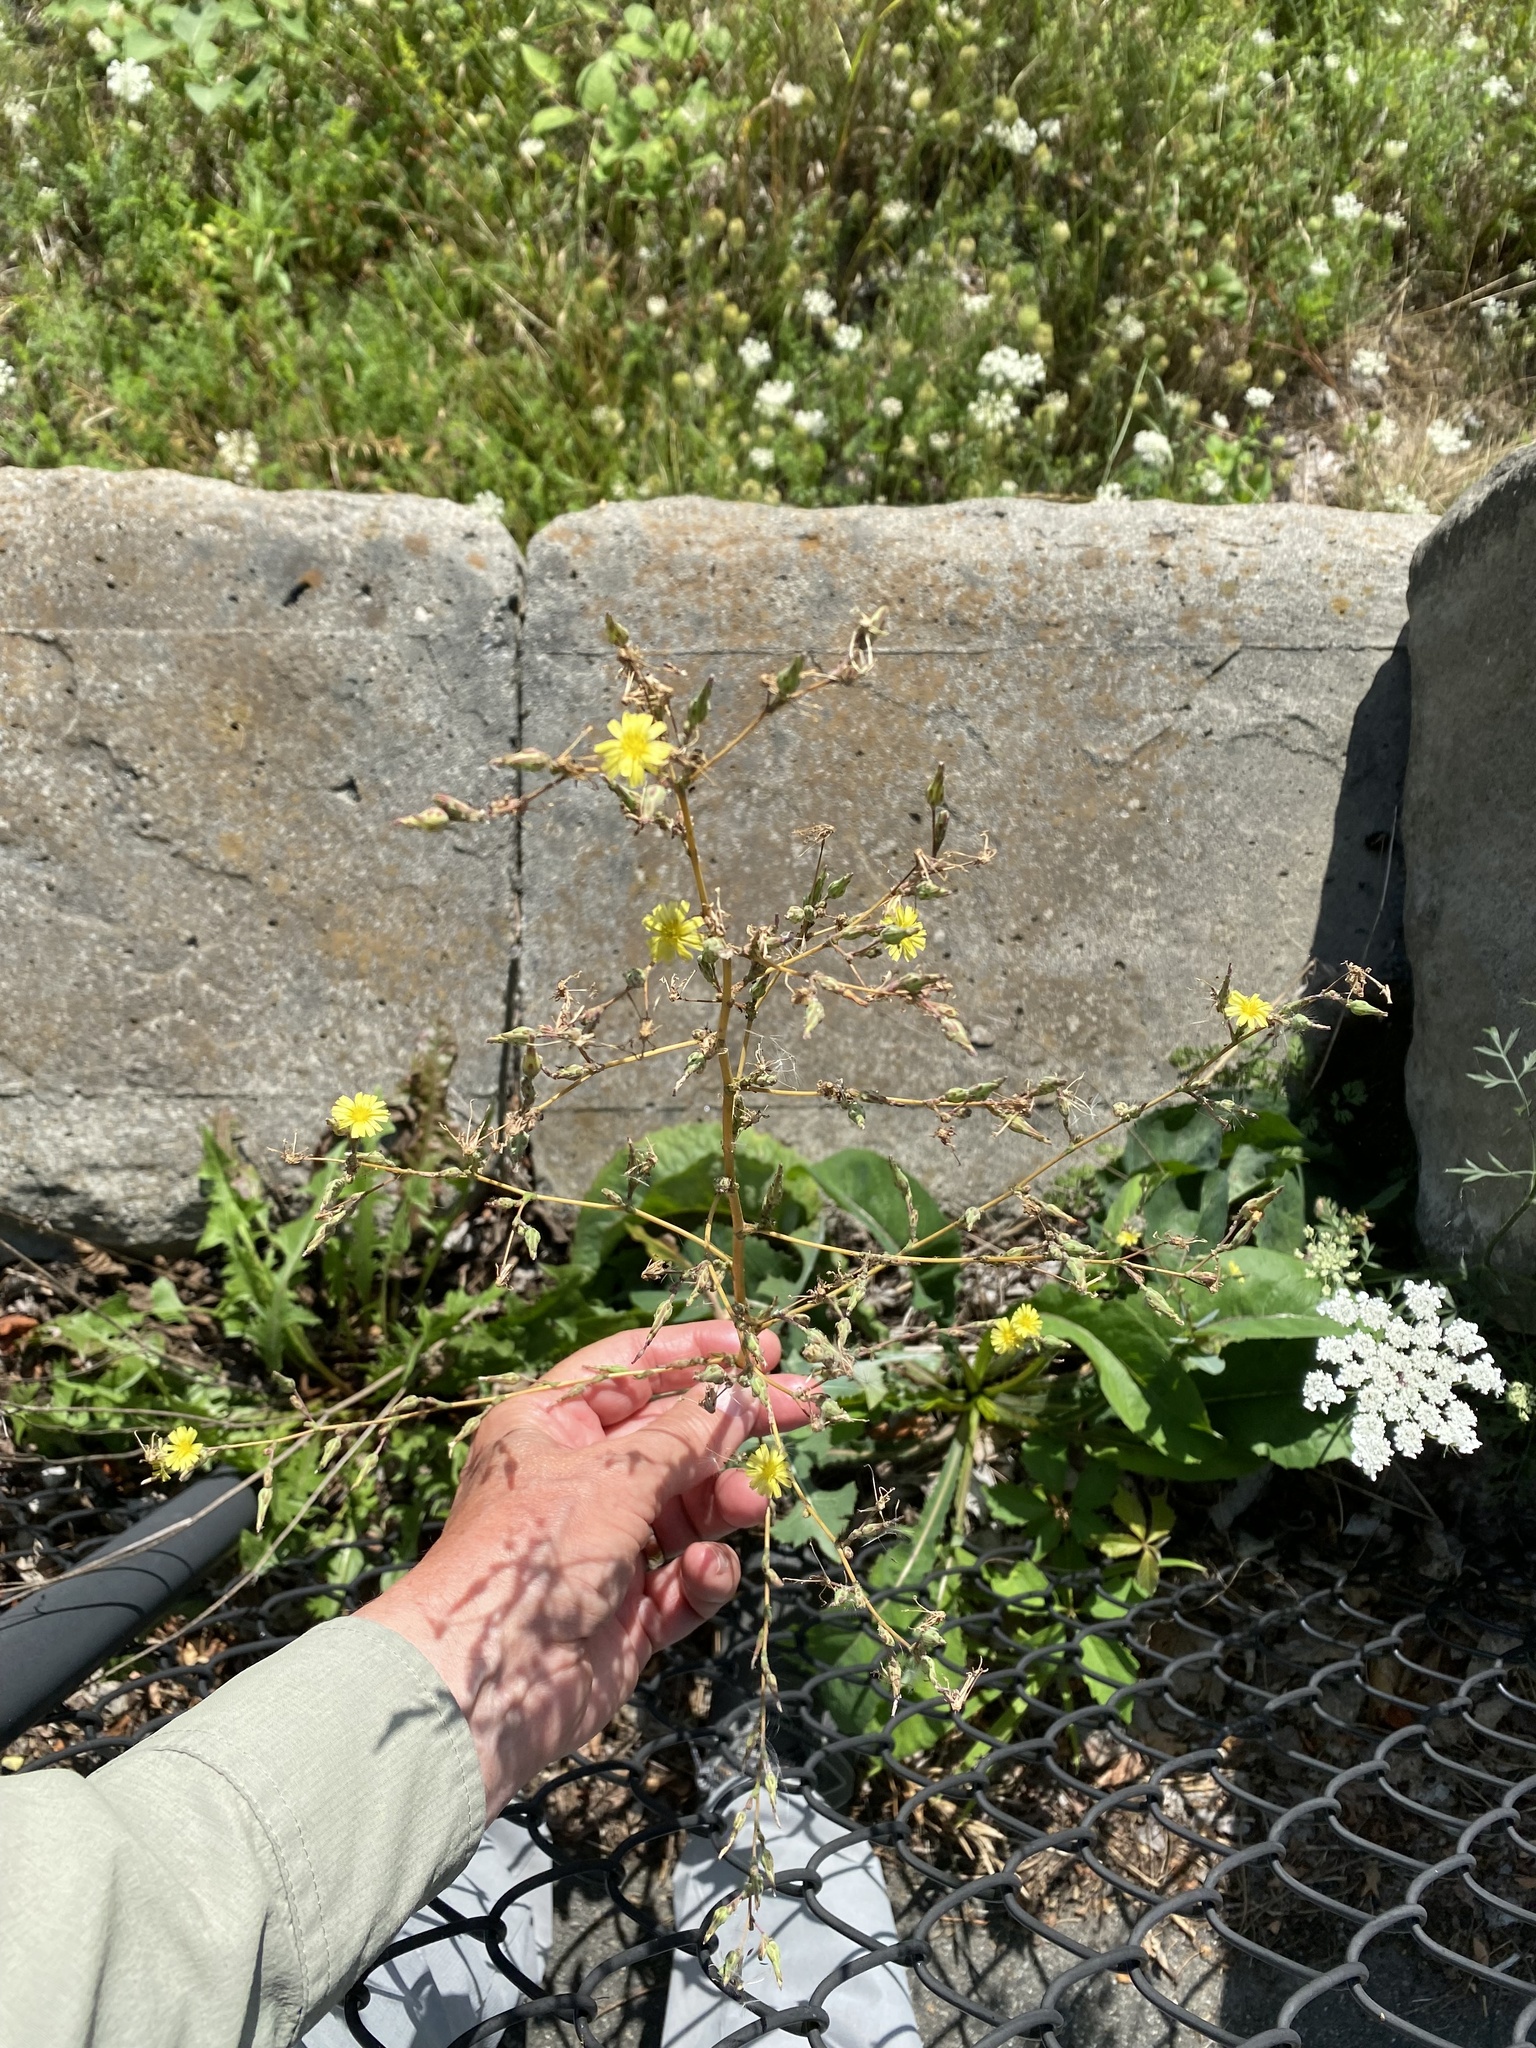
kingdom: Plantae
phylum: Tracheophyta
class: Magnoliopsida
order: Asterales
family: Asteraceae
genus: Lactuca
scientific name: Lactuca serriola
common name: Prickly lettuce
